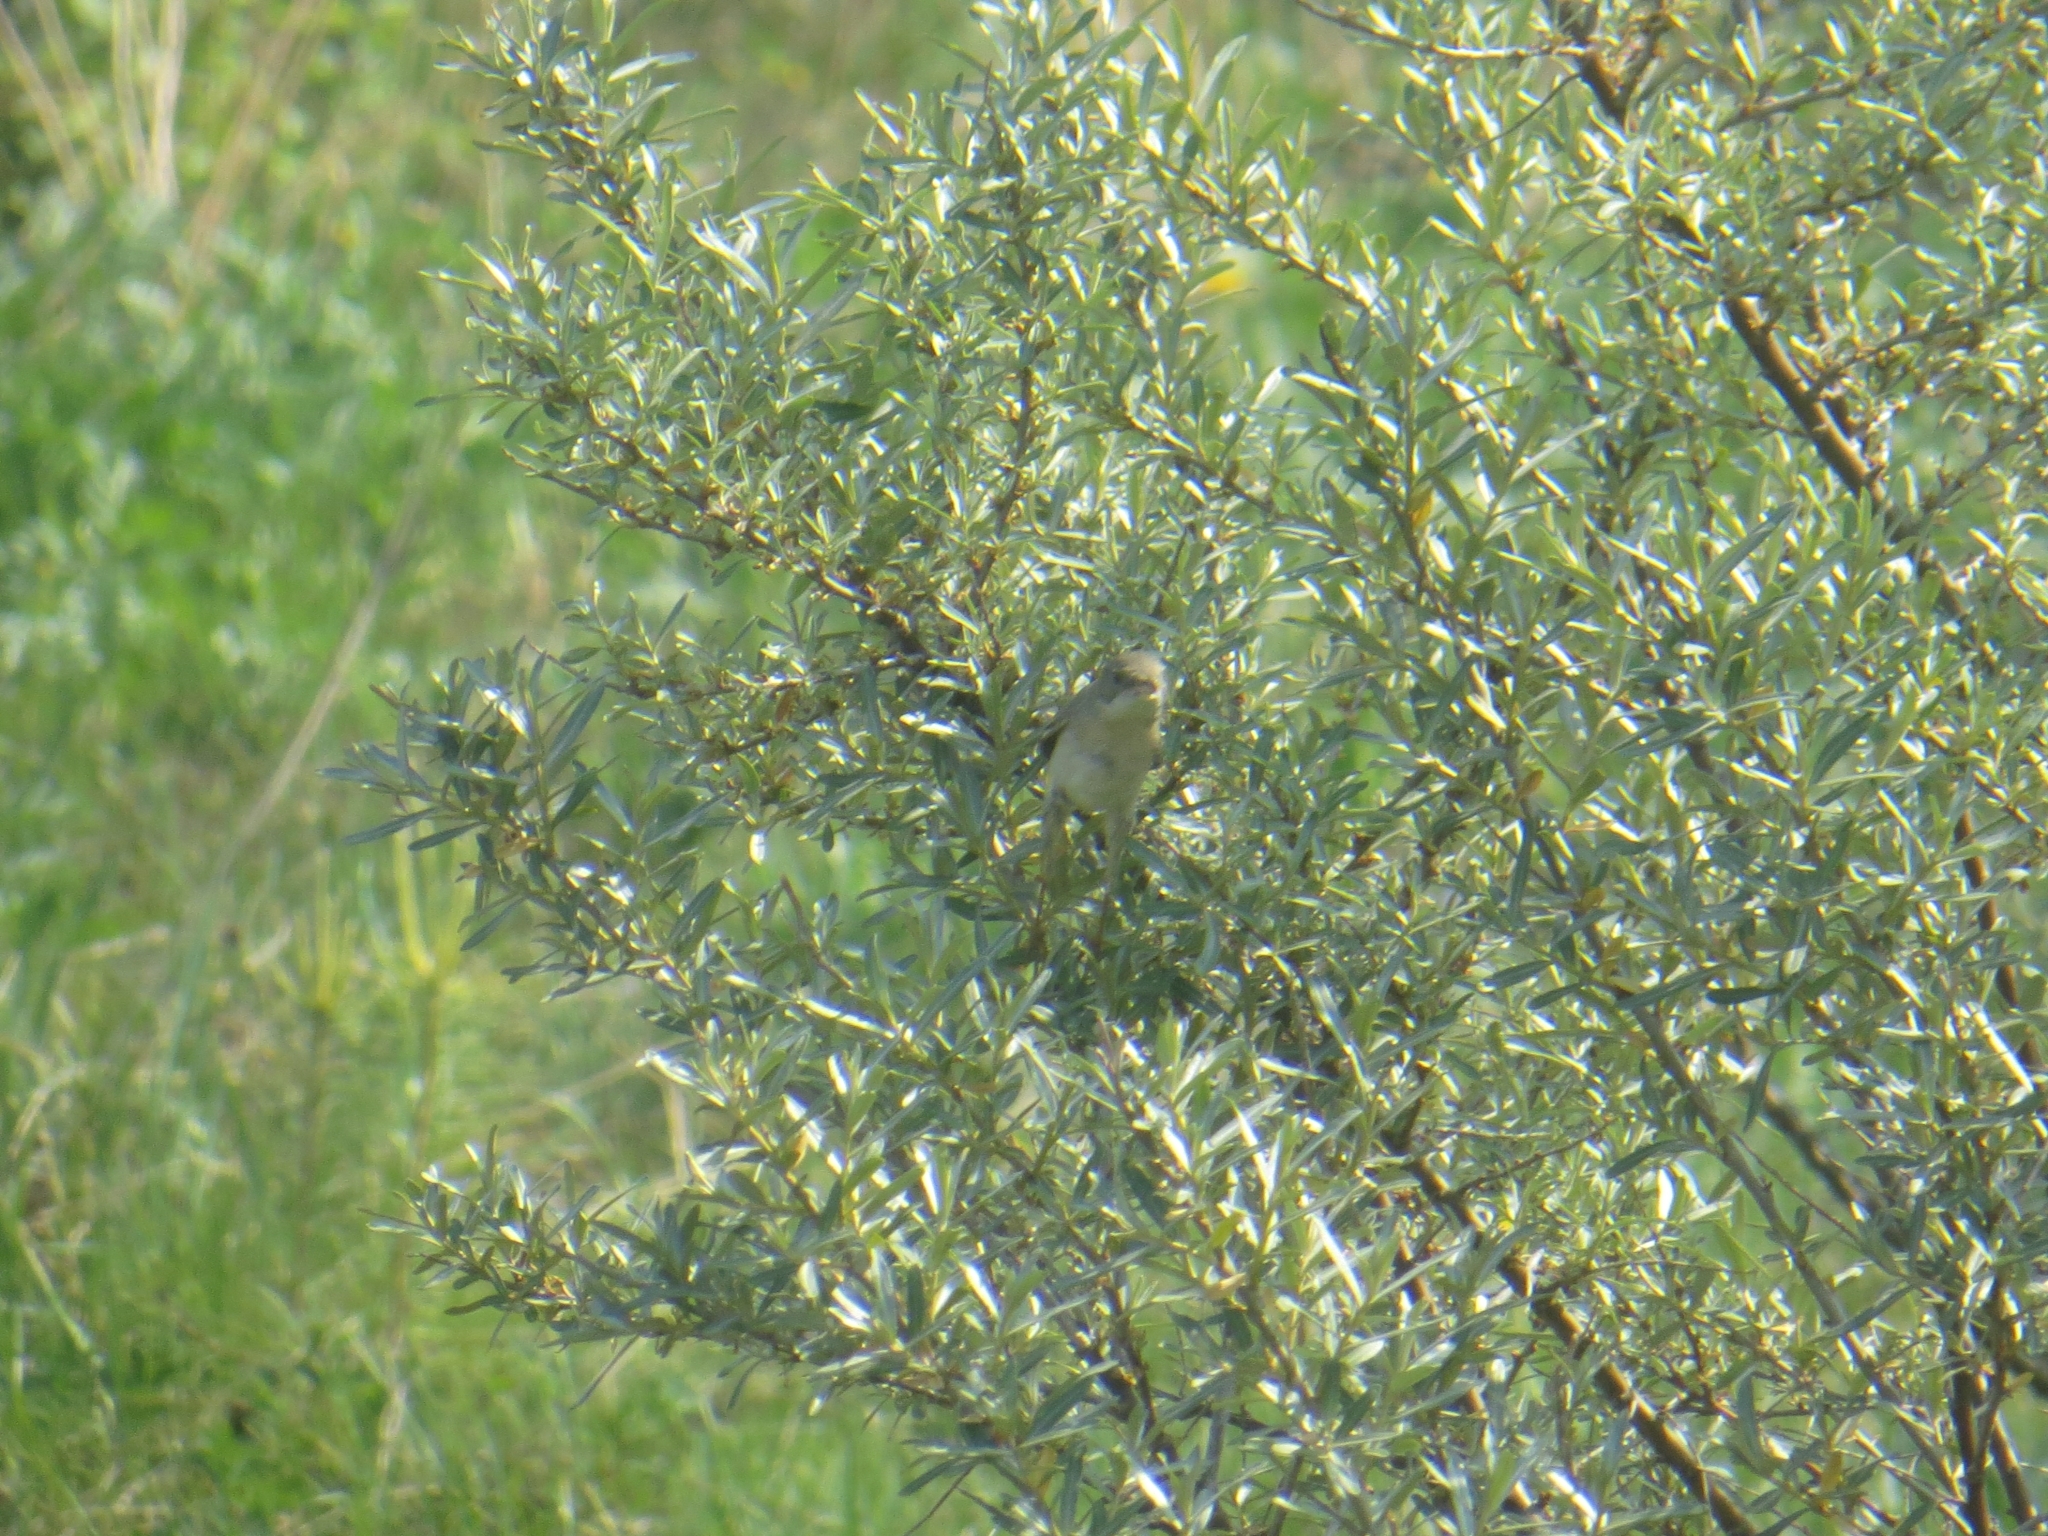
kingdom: Animalia
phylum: Chordata
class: Aves
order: Passeriformes
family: Sylviidae
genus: Sylvia
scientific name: Sylvia communis
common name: Common whitethroat
